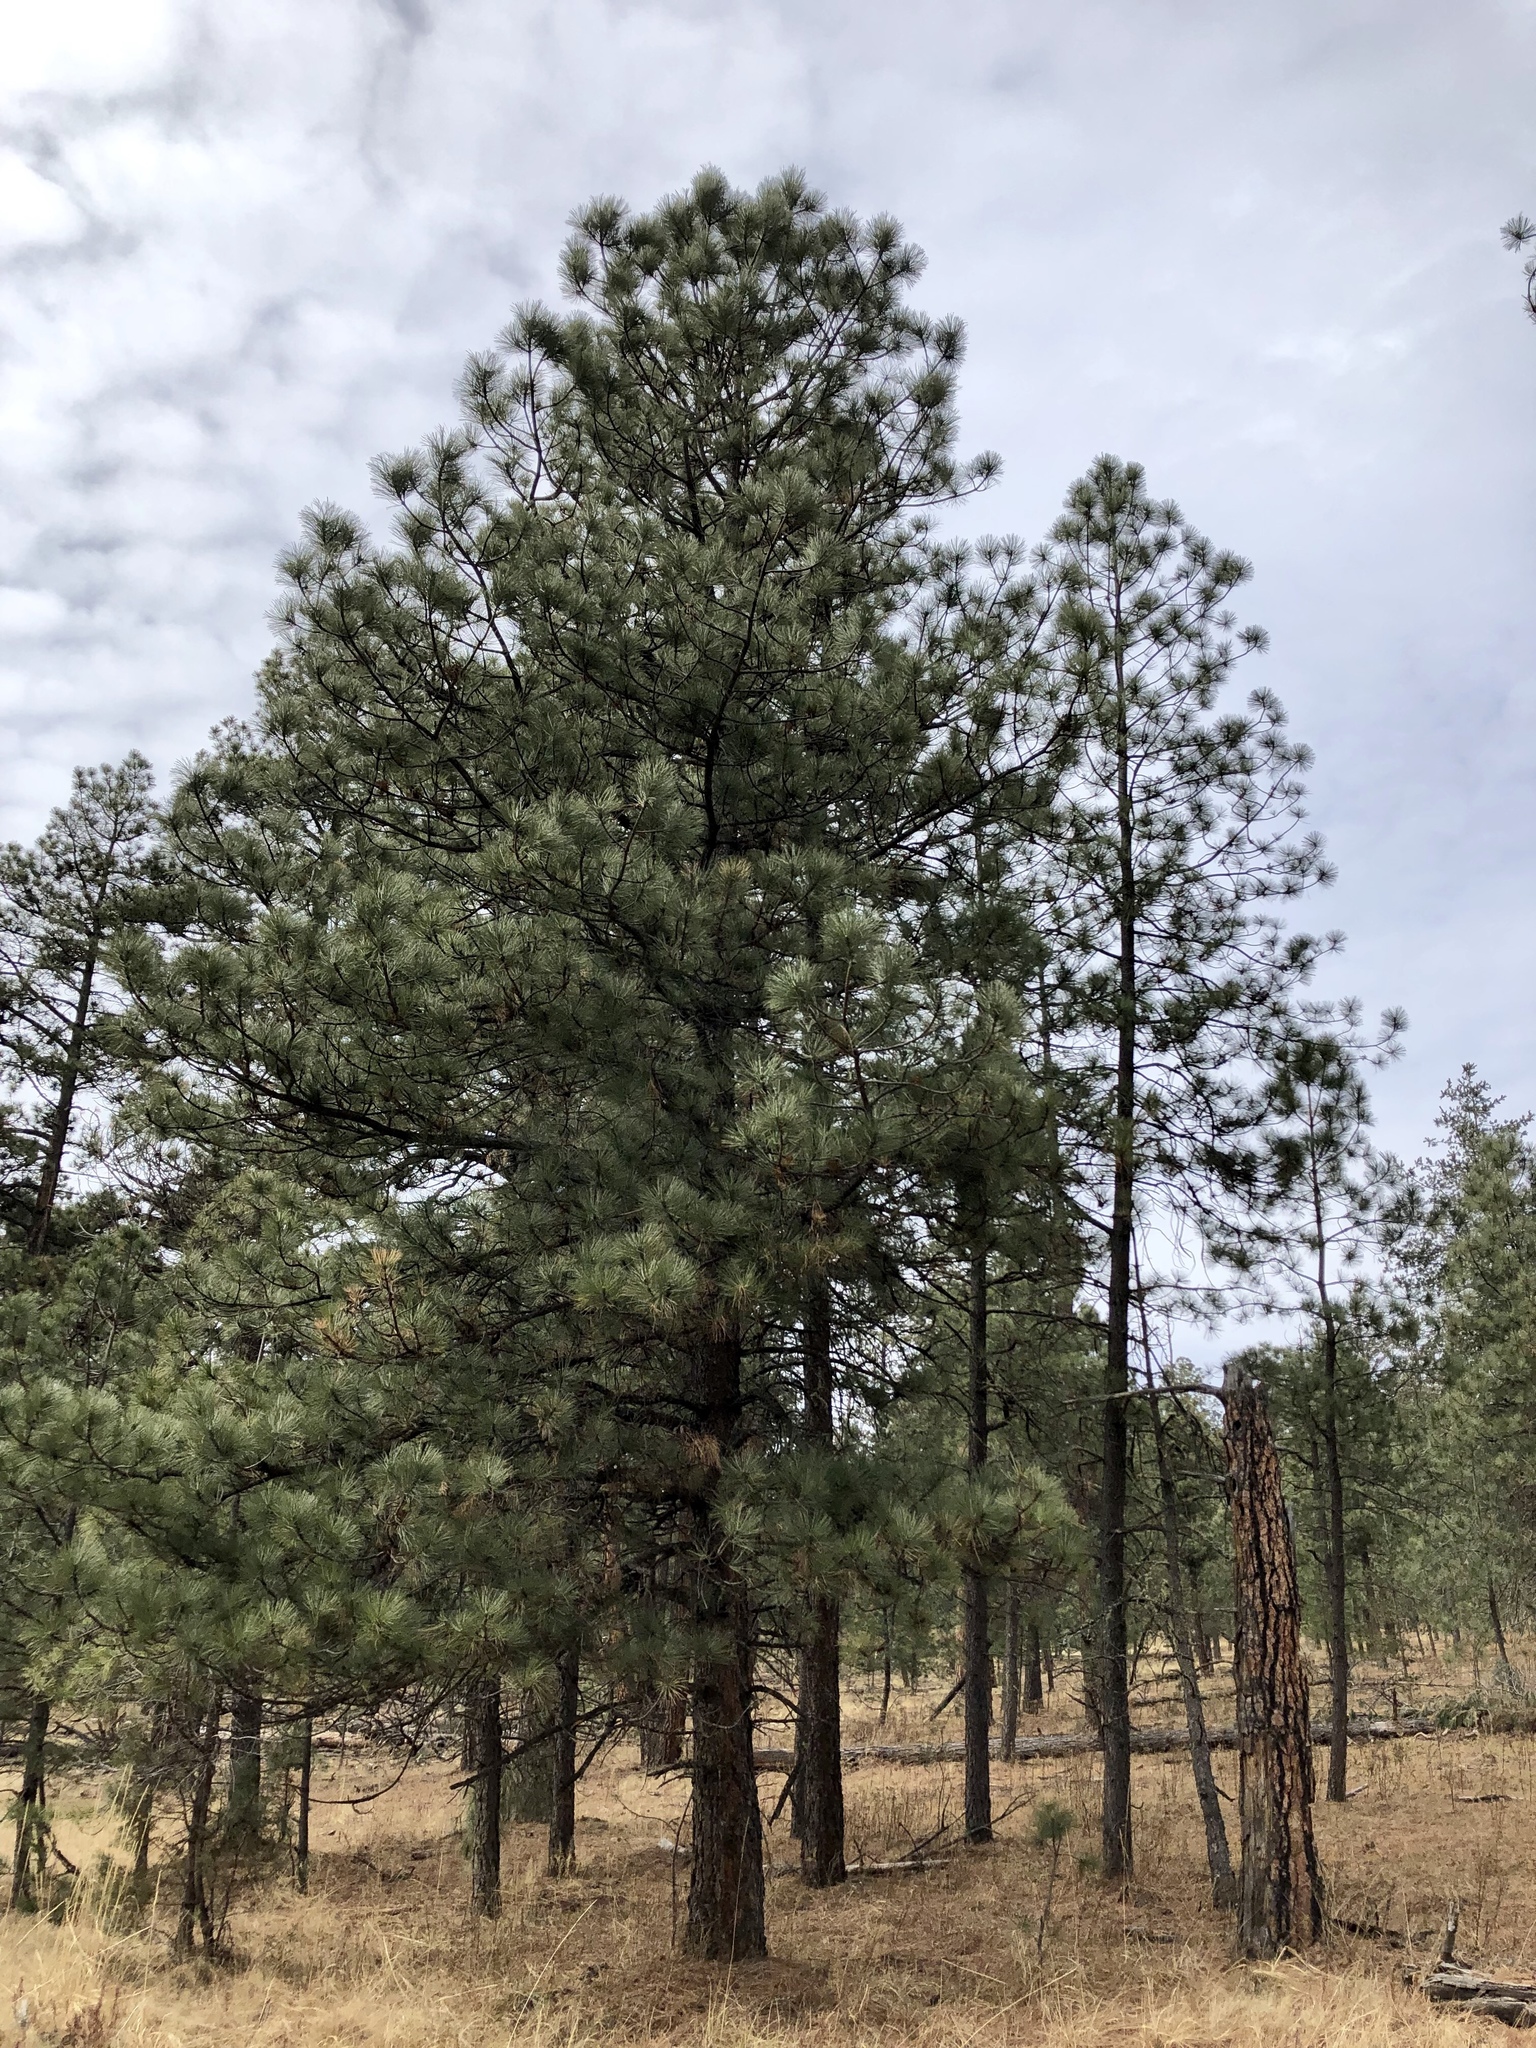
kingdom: Plantae
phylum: Tracheophyta
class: Pinopsida
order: Pinales
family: Pinaceae
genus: Pinus
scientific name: Pinus ponderosa
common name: Western yellow-pine
